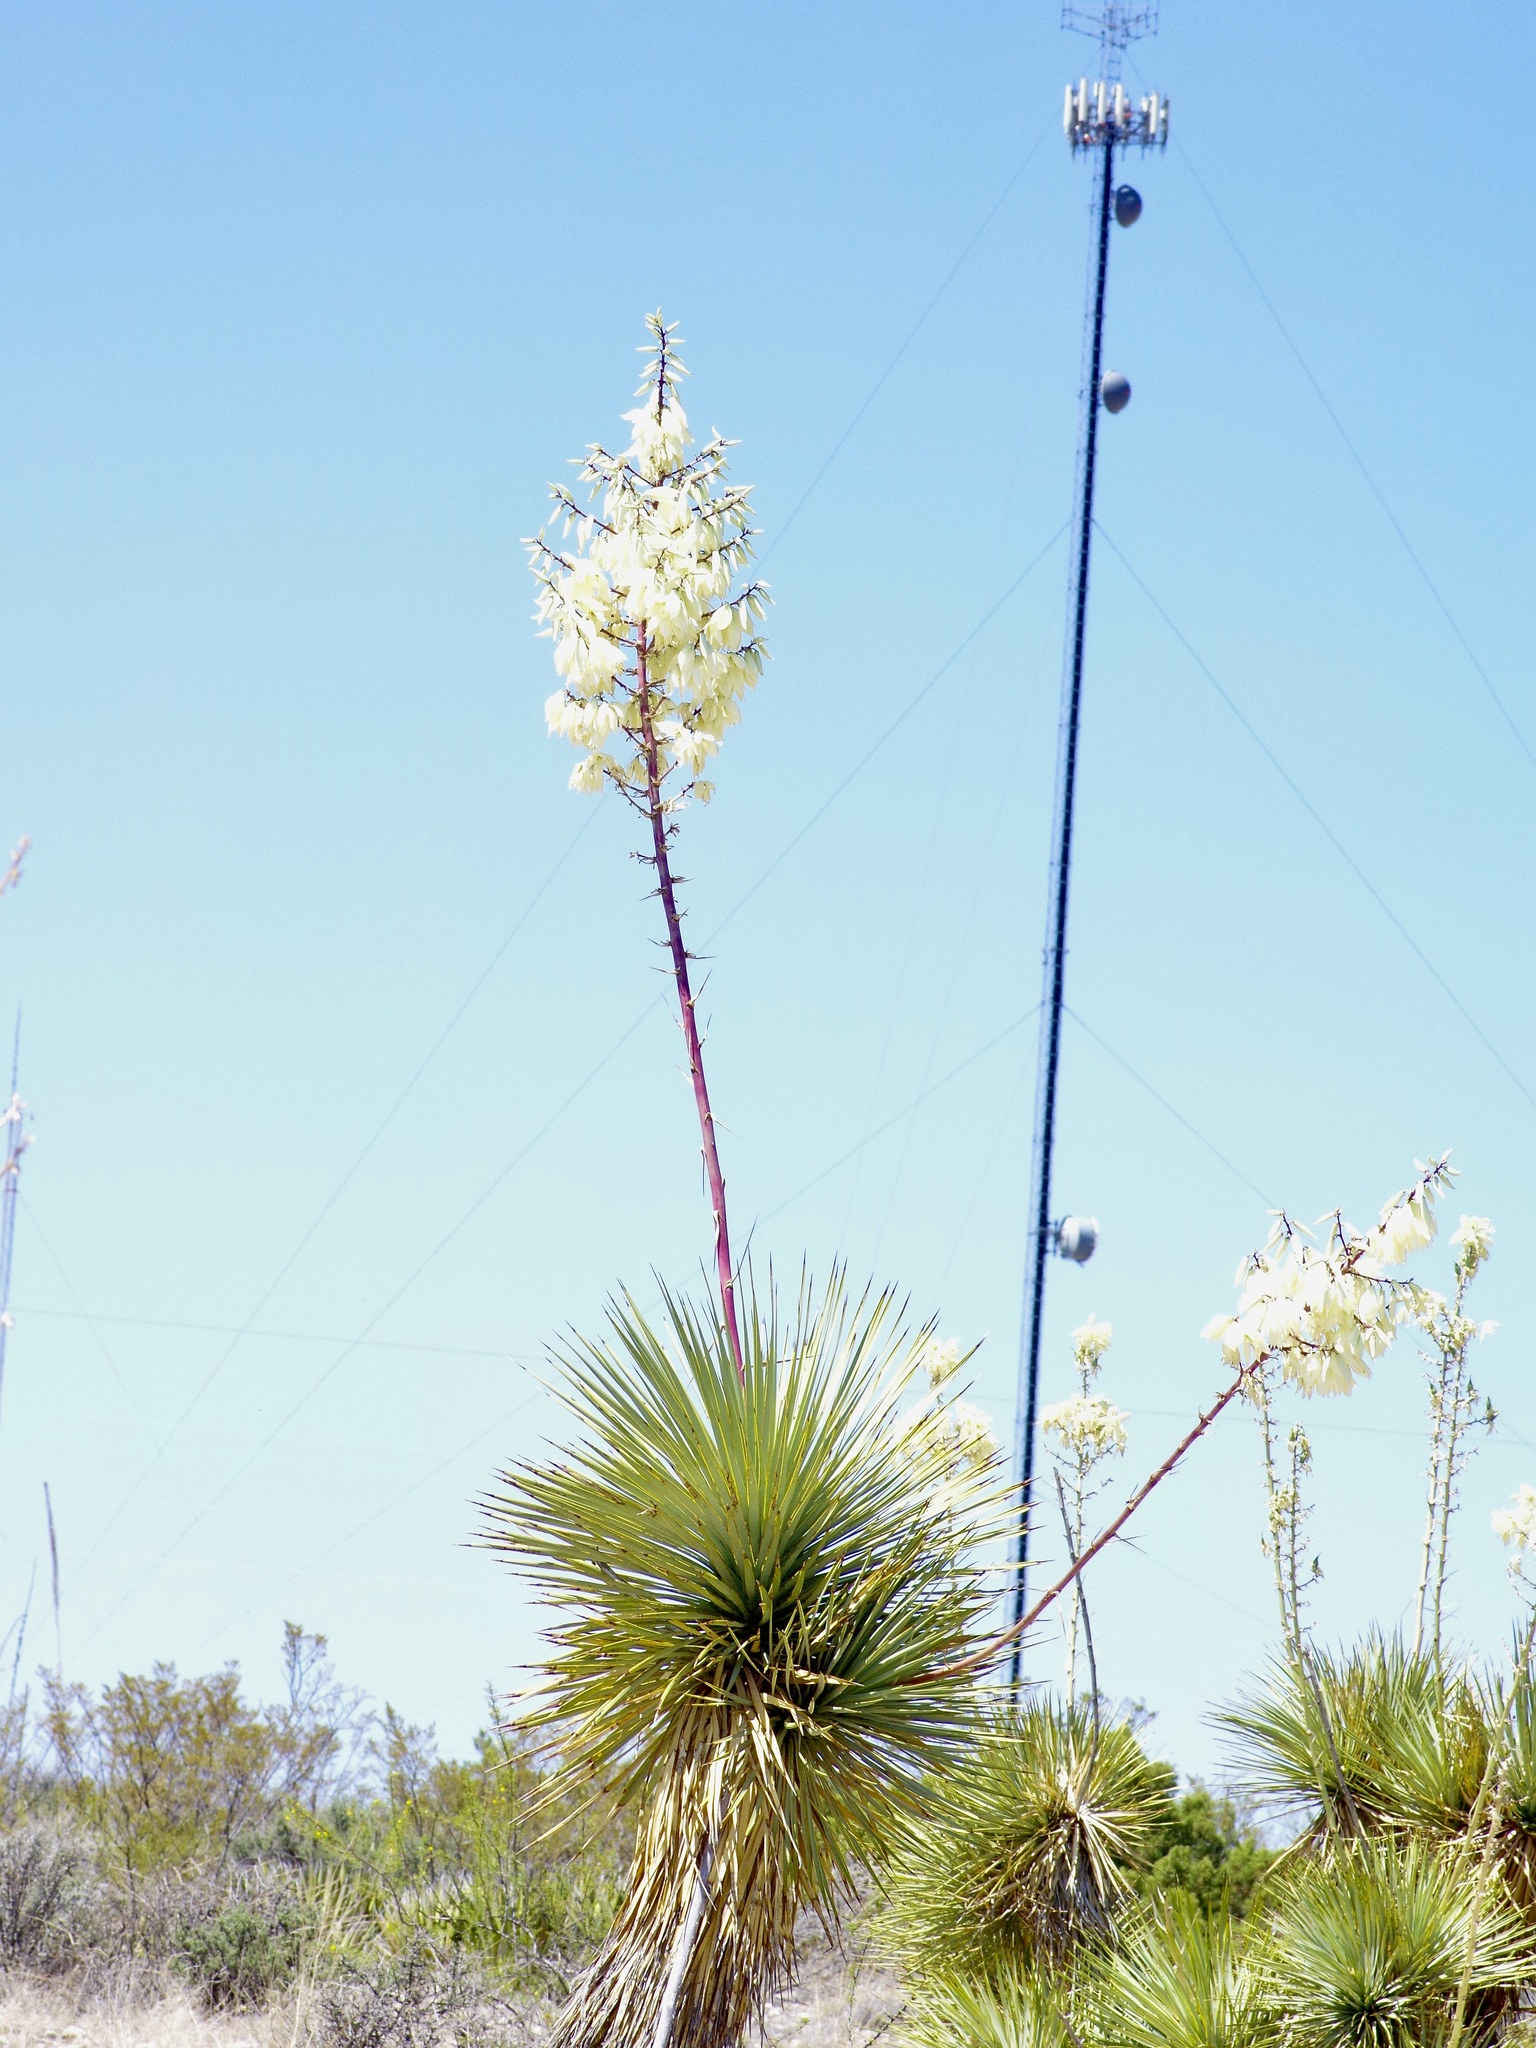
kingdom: Plantae
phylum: Tracheophyta
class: Liliopsida
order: Asparagales
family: Asparagaceae
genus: Yucca
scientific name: Yucca thompsoniana
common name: Trans-pecos yucca
